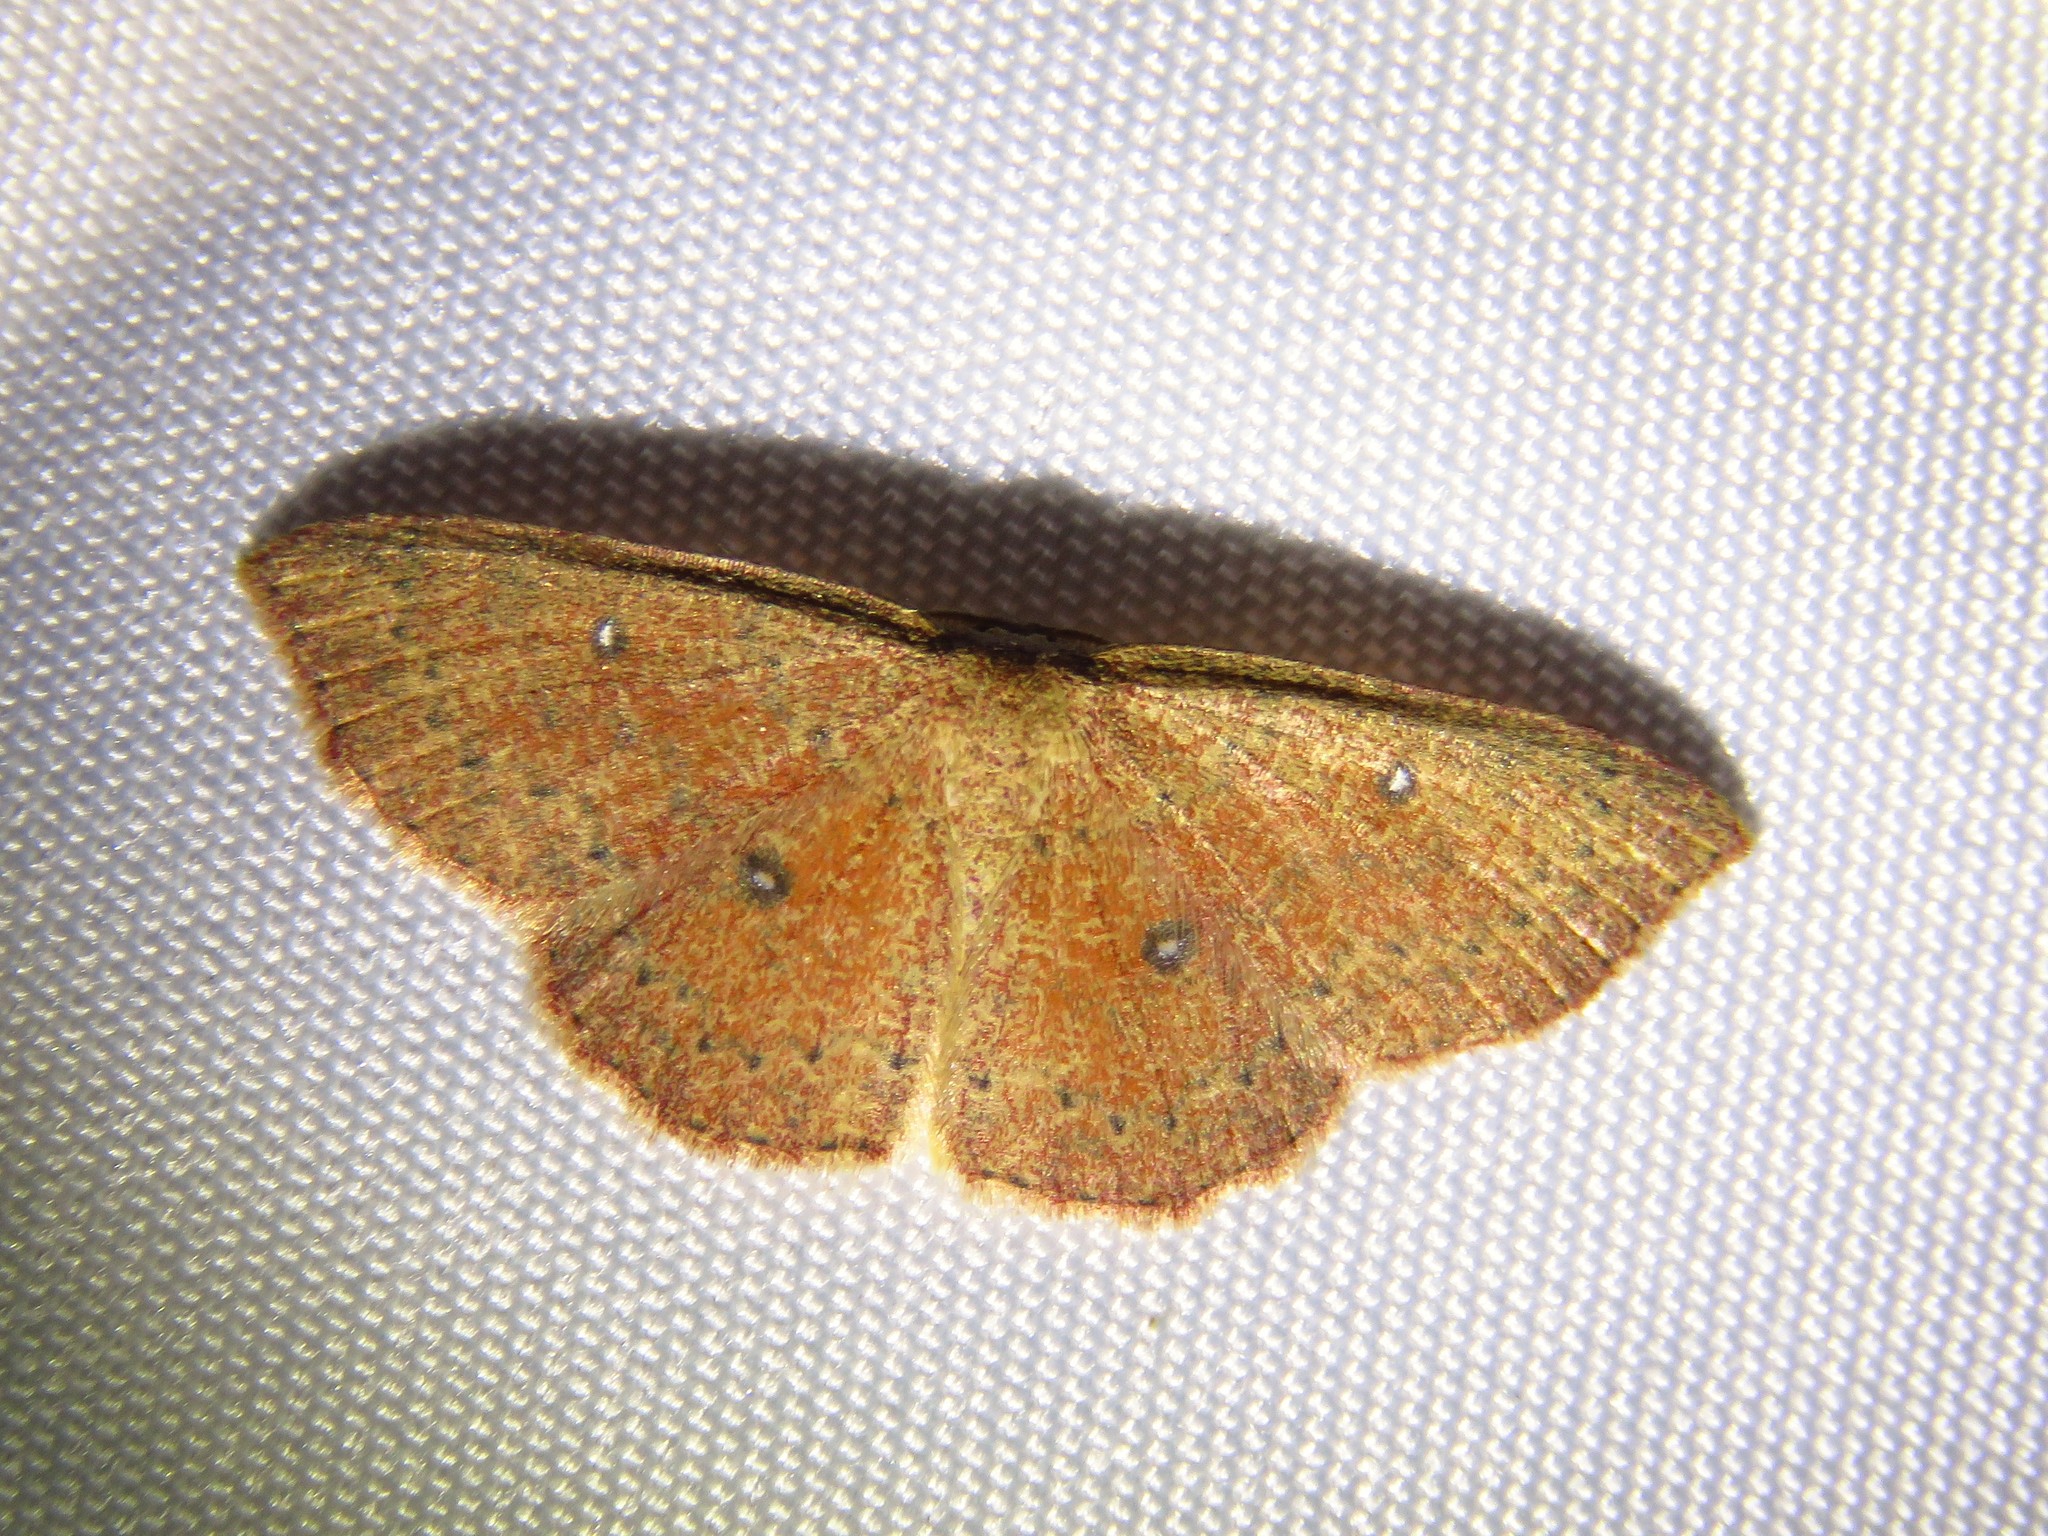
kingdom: Animalia
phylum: Arthropoda
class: Insecta
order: Lepidoptera
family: Geometridae
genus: Cyclophora
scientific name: Cyclophora packardi
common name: Packard's wave
